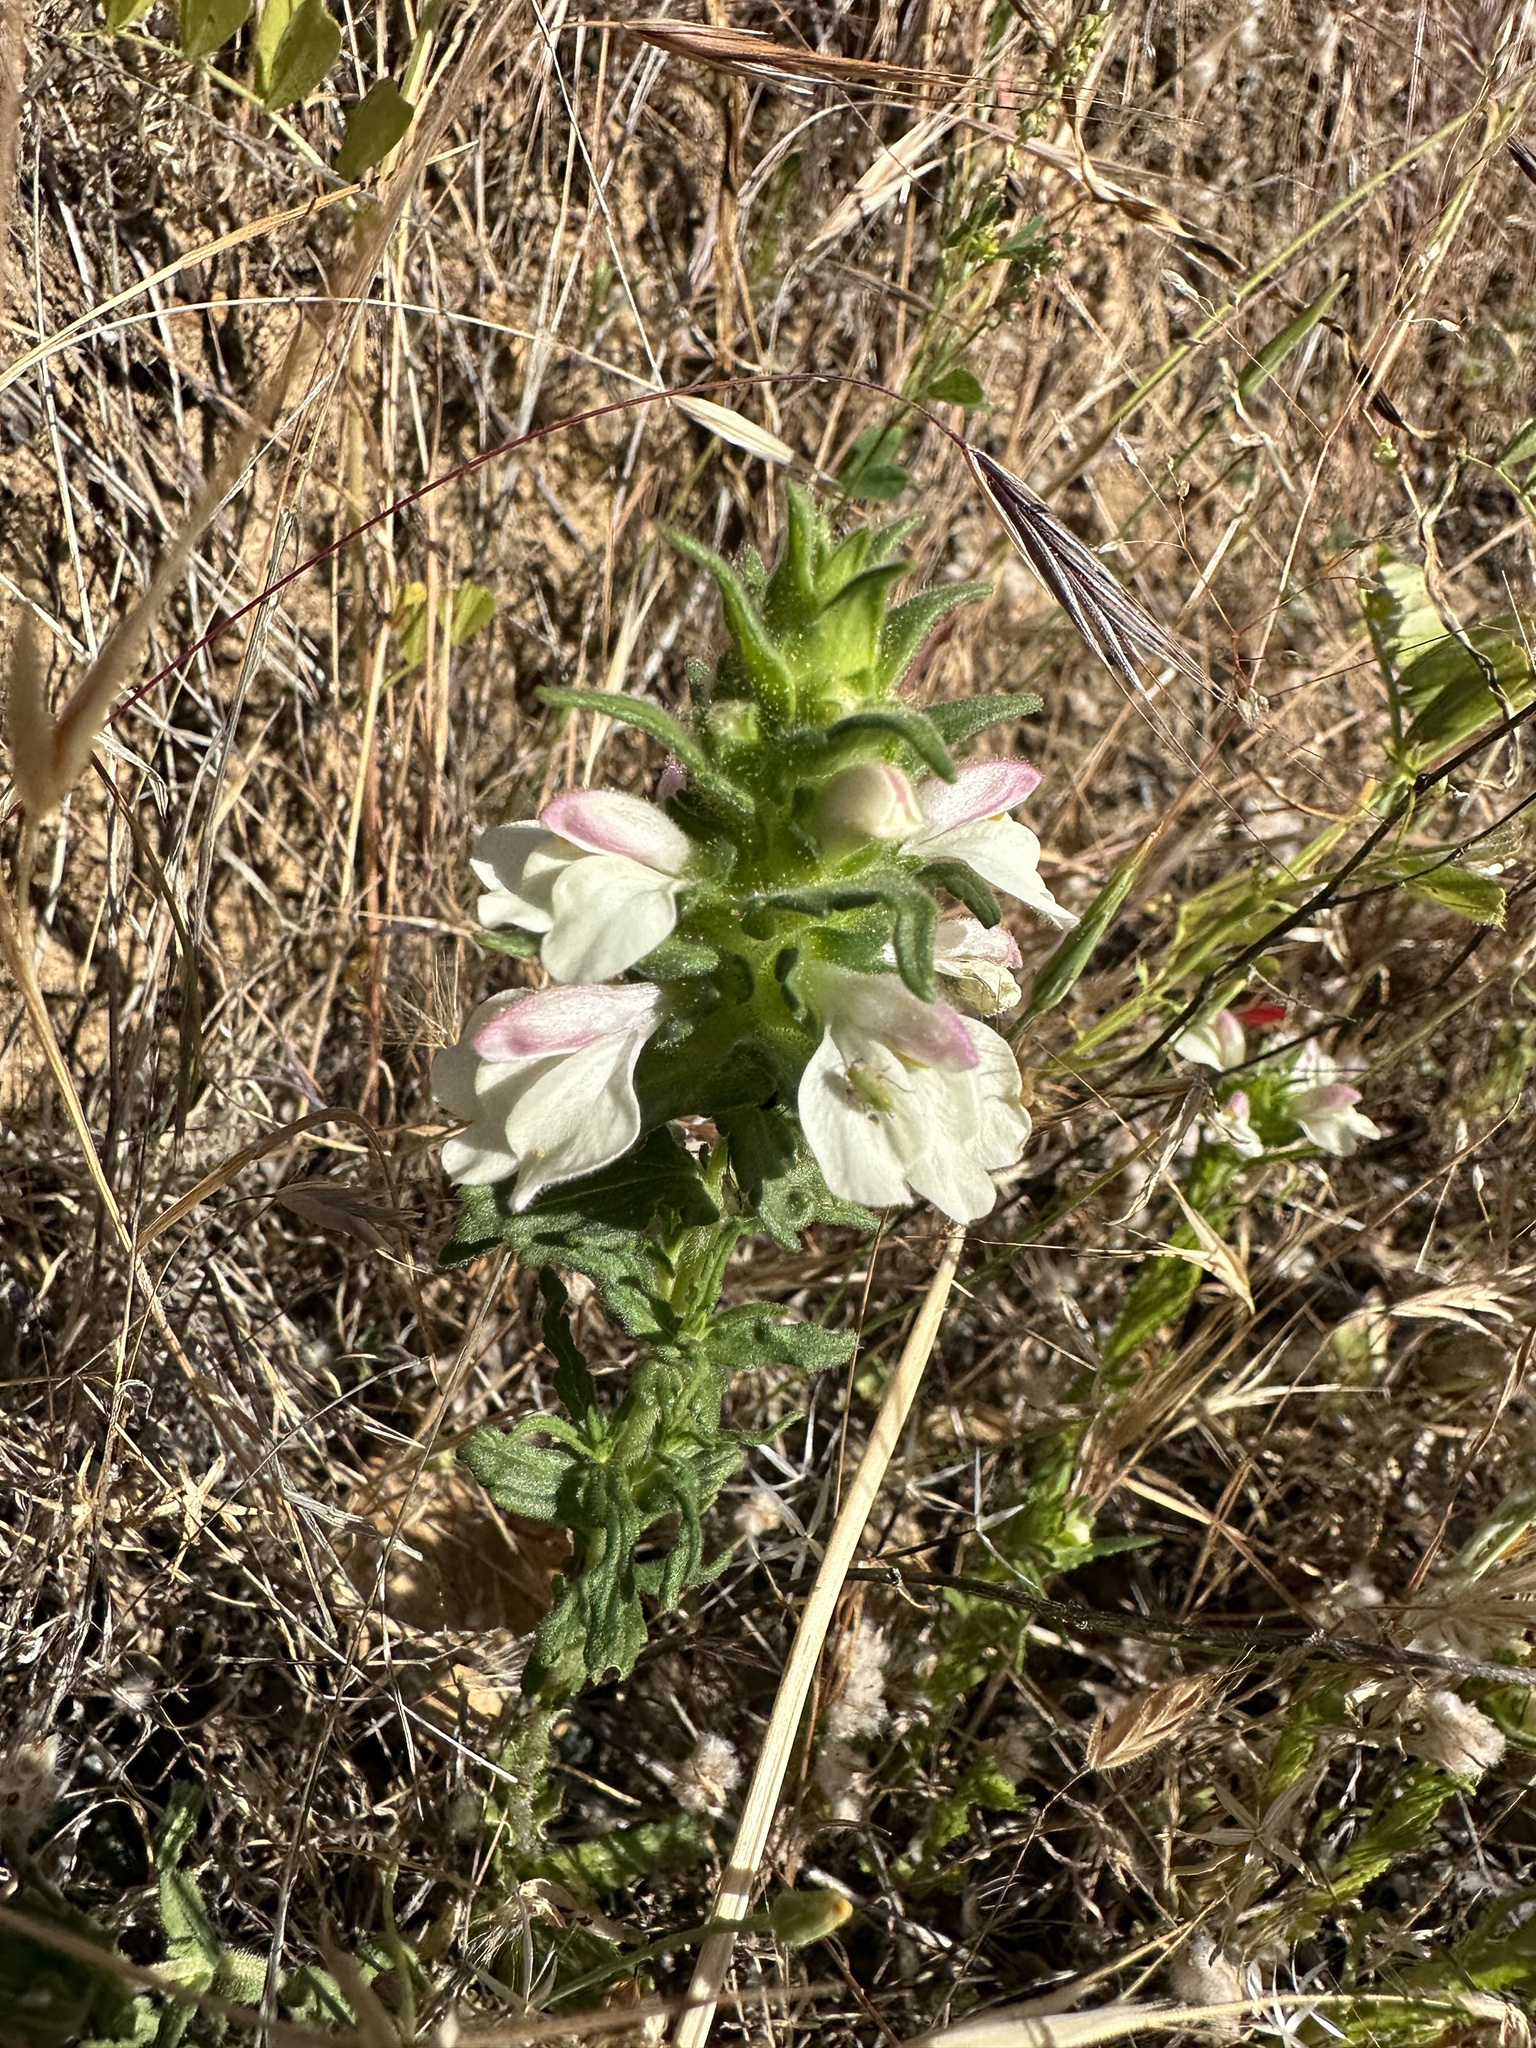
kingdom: Plantae
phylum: Tracheophyta
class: Magnoliopsida
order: Lamiales
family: Orobanchaceae
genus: Bellardia
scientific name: Bellardia trixago
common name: Mediterranean lineseed
